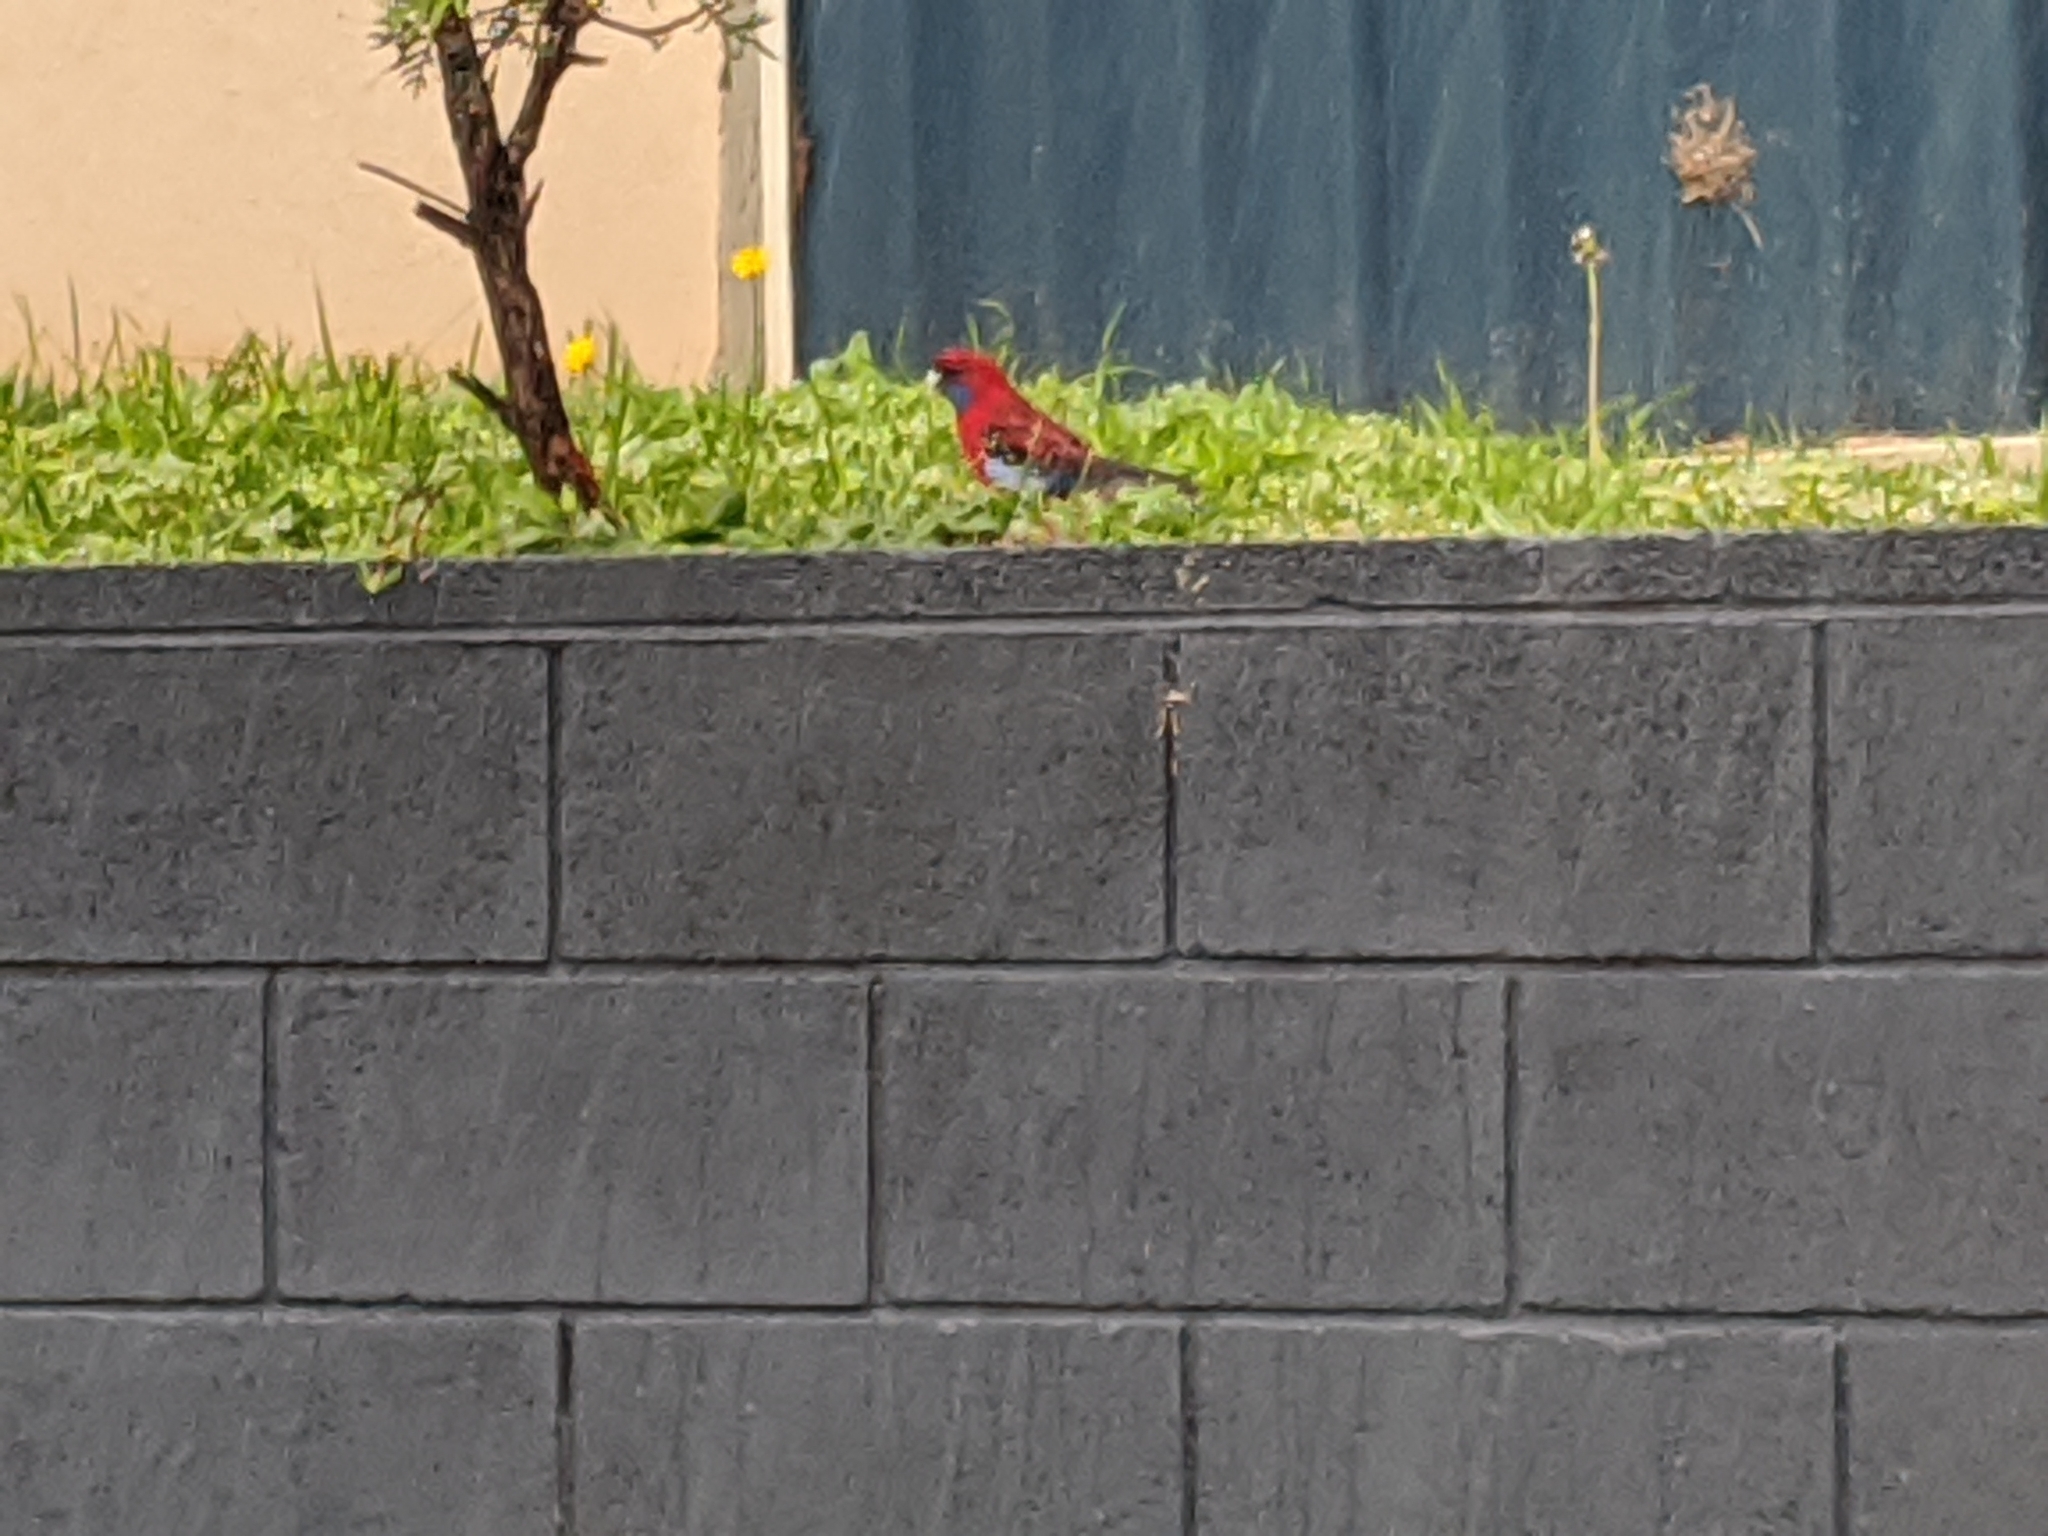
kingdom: Animalia
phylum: Chordata
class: Aves
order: Psittaciformes
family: Psittacidae
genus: Platycercus
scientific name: Platycercus elegans
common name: Crimson rosella
